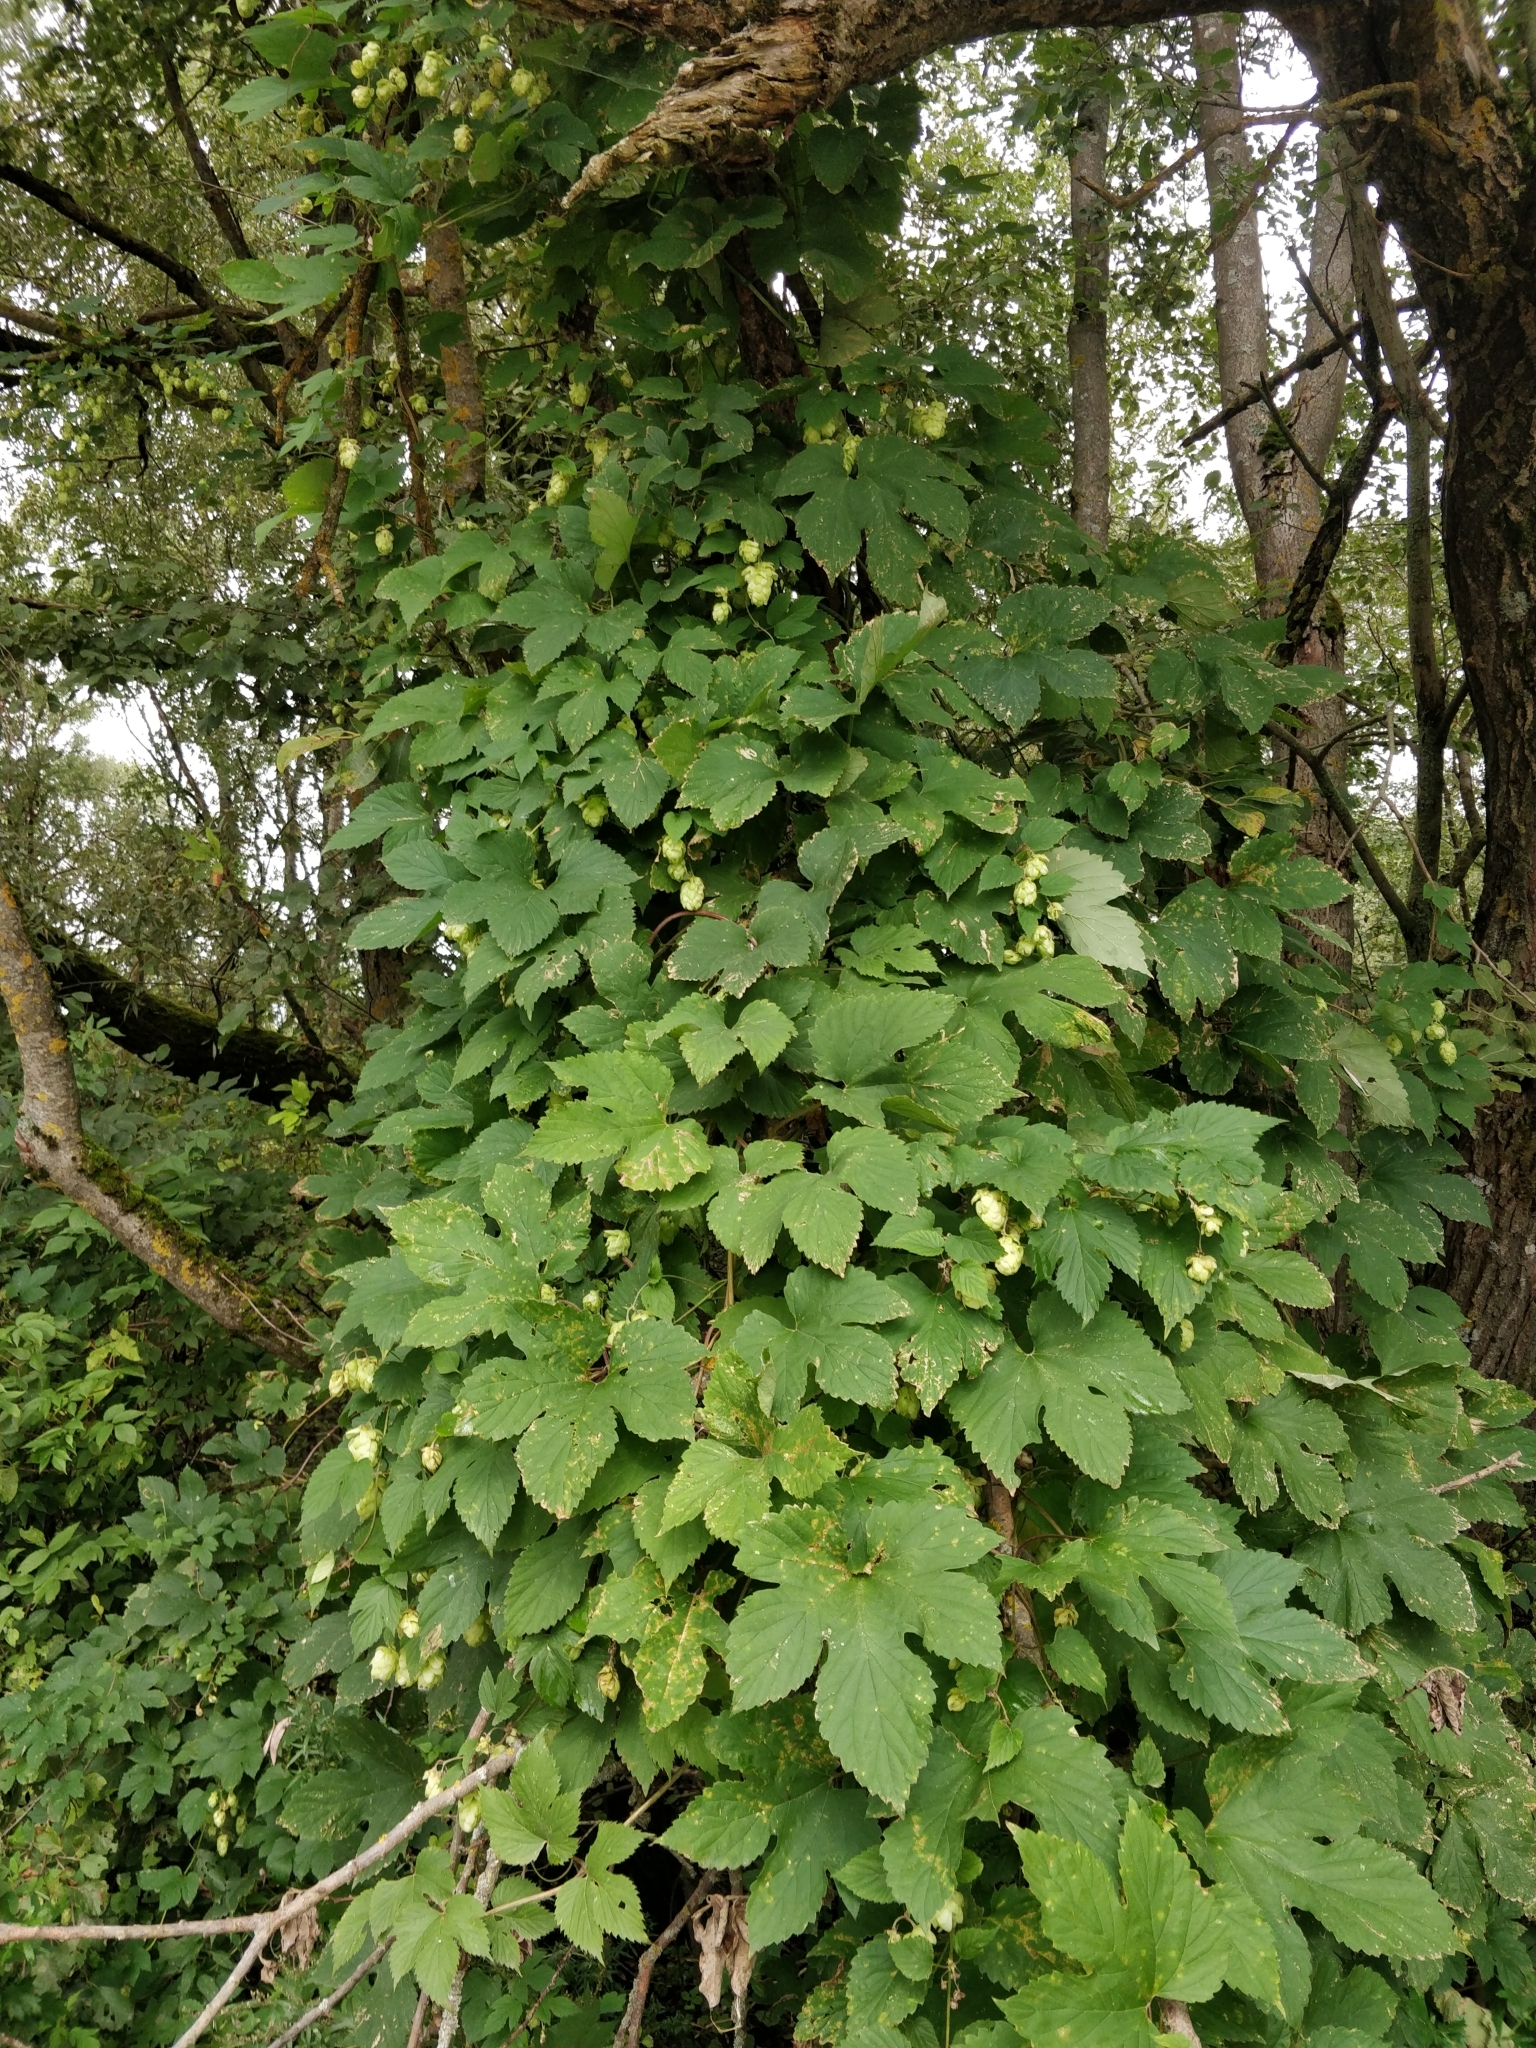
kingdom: Plantae
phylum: Tracheophyta
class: Magnoliopsida
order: Rosales
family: Cannabaceae
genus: Humulus
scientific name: Humulus lupulus
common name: Hop
